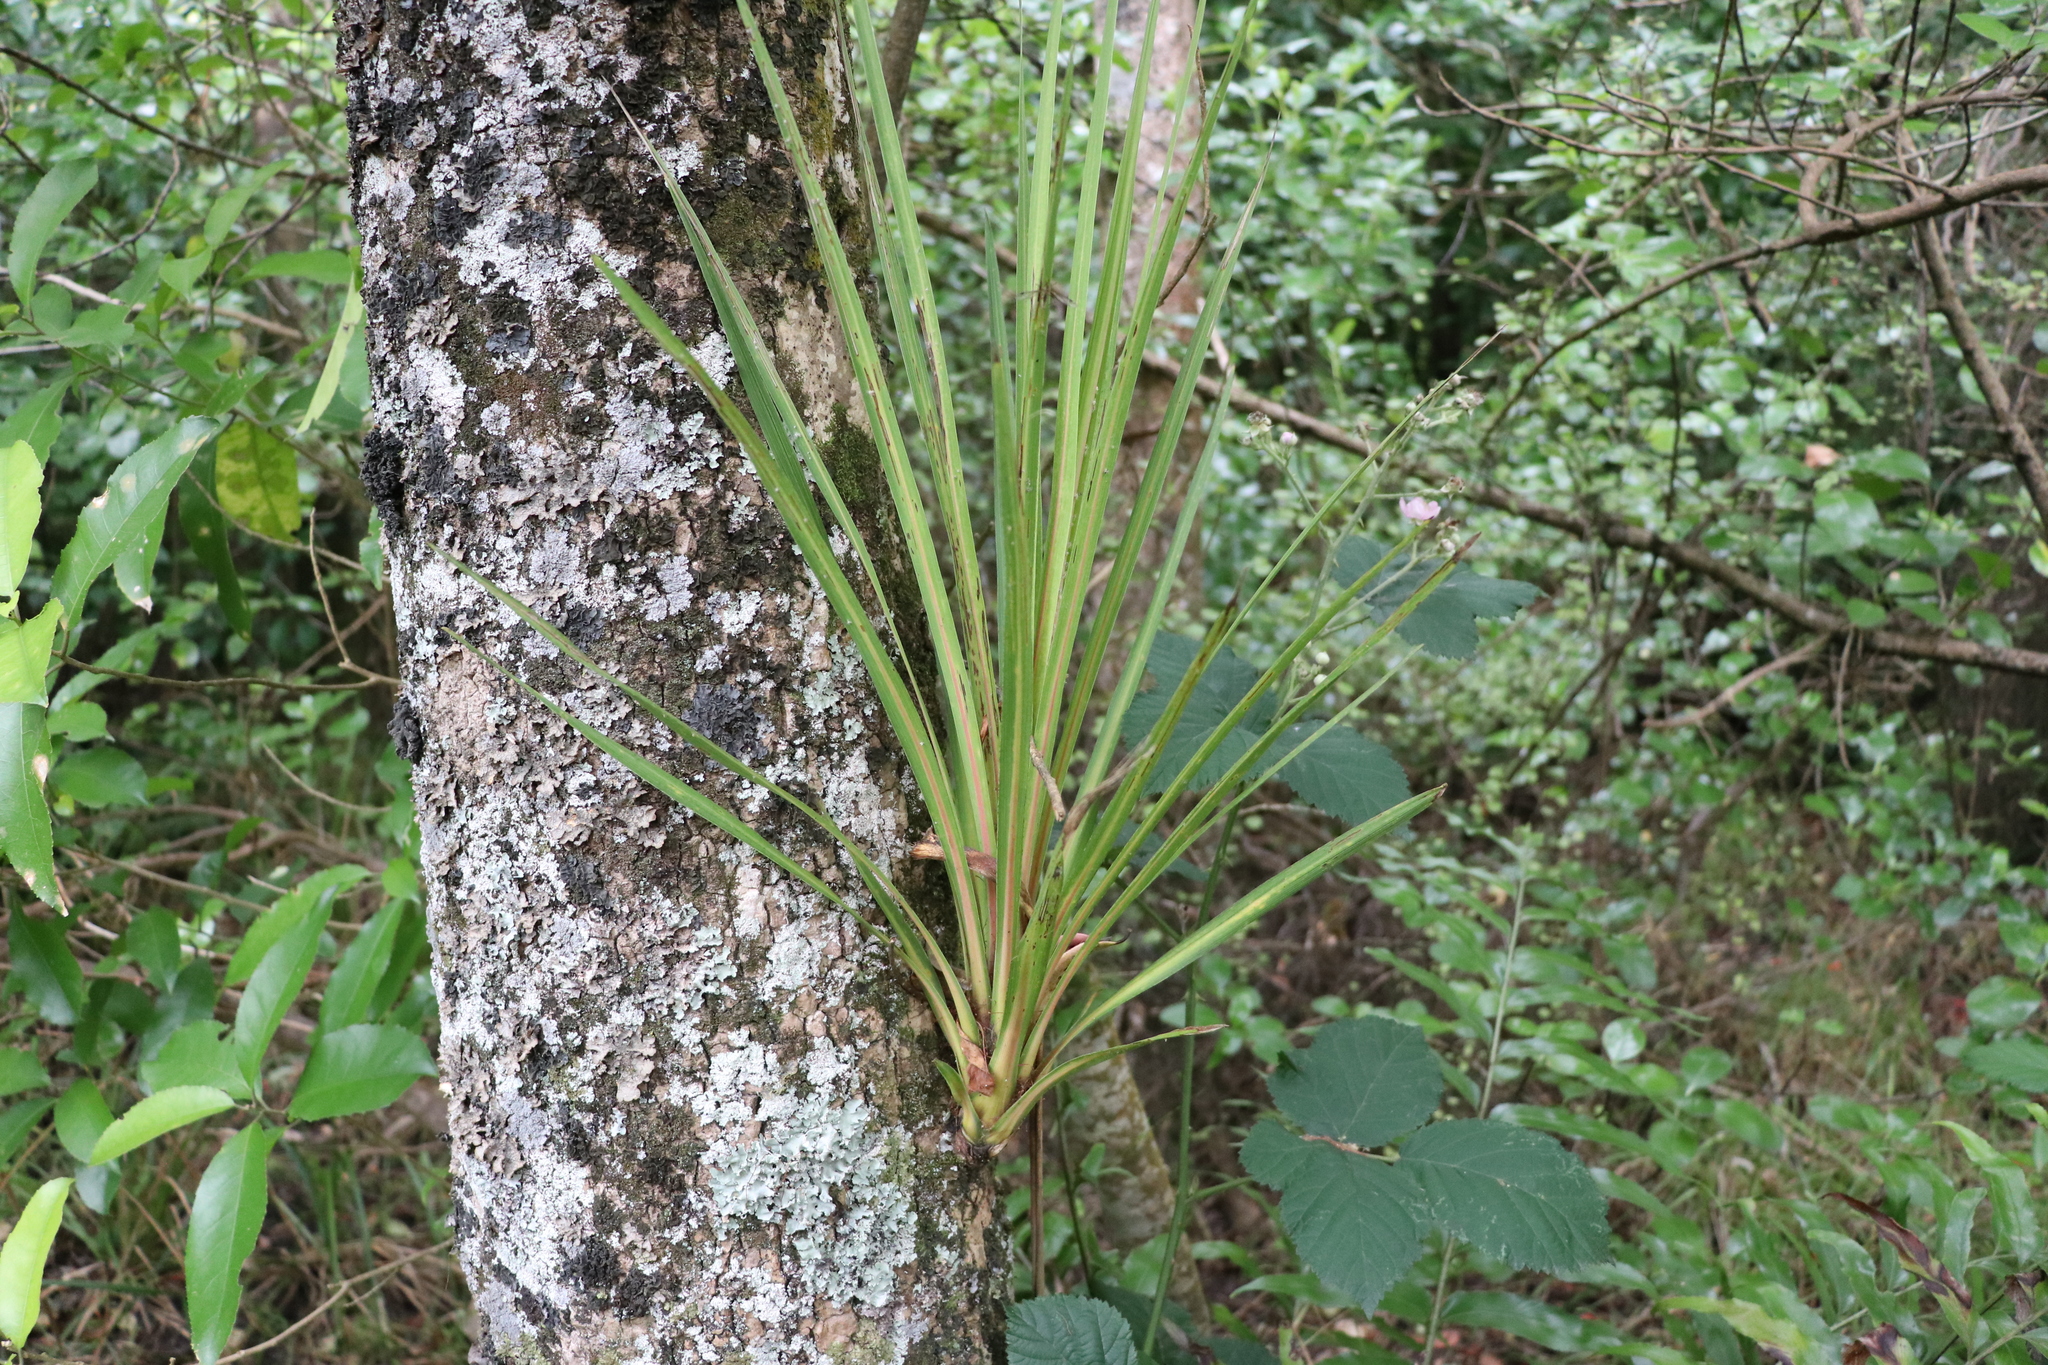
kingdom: Plantae
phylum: Tracheophyta
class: Liliopsida
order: Asparagales
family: Asparagaceae
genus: Cordyline
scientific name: Cordyline australis
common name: Cabbage-palm
